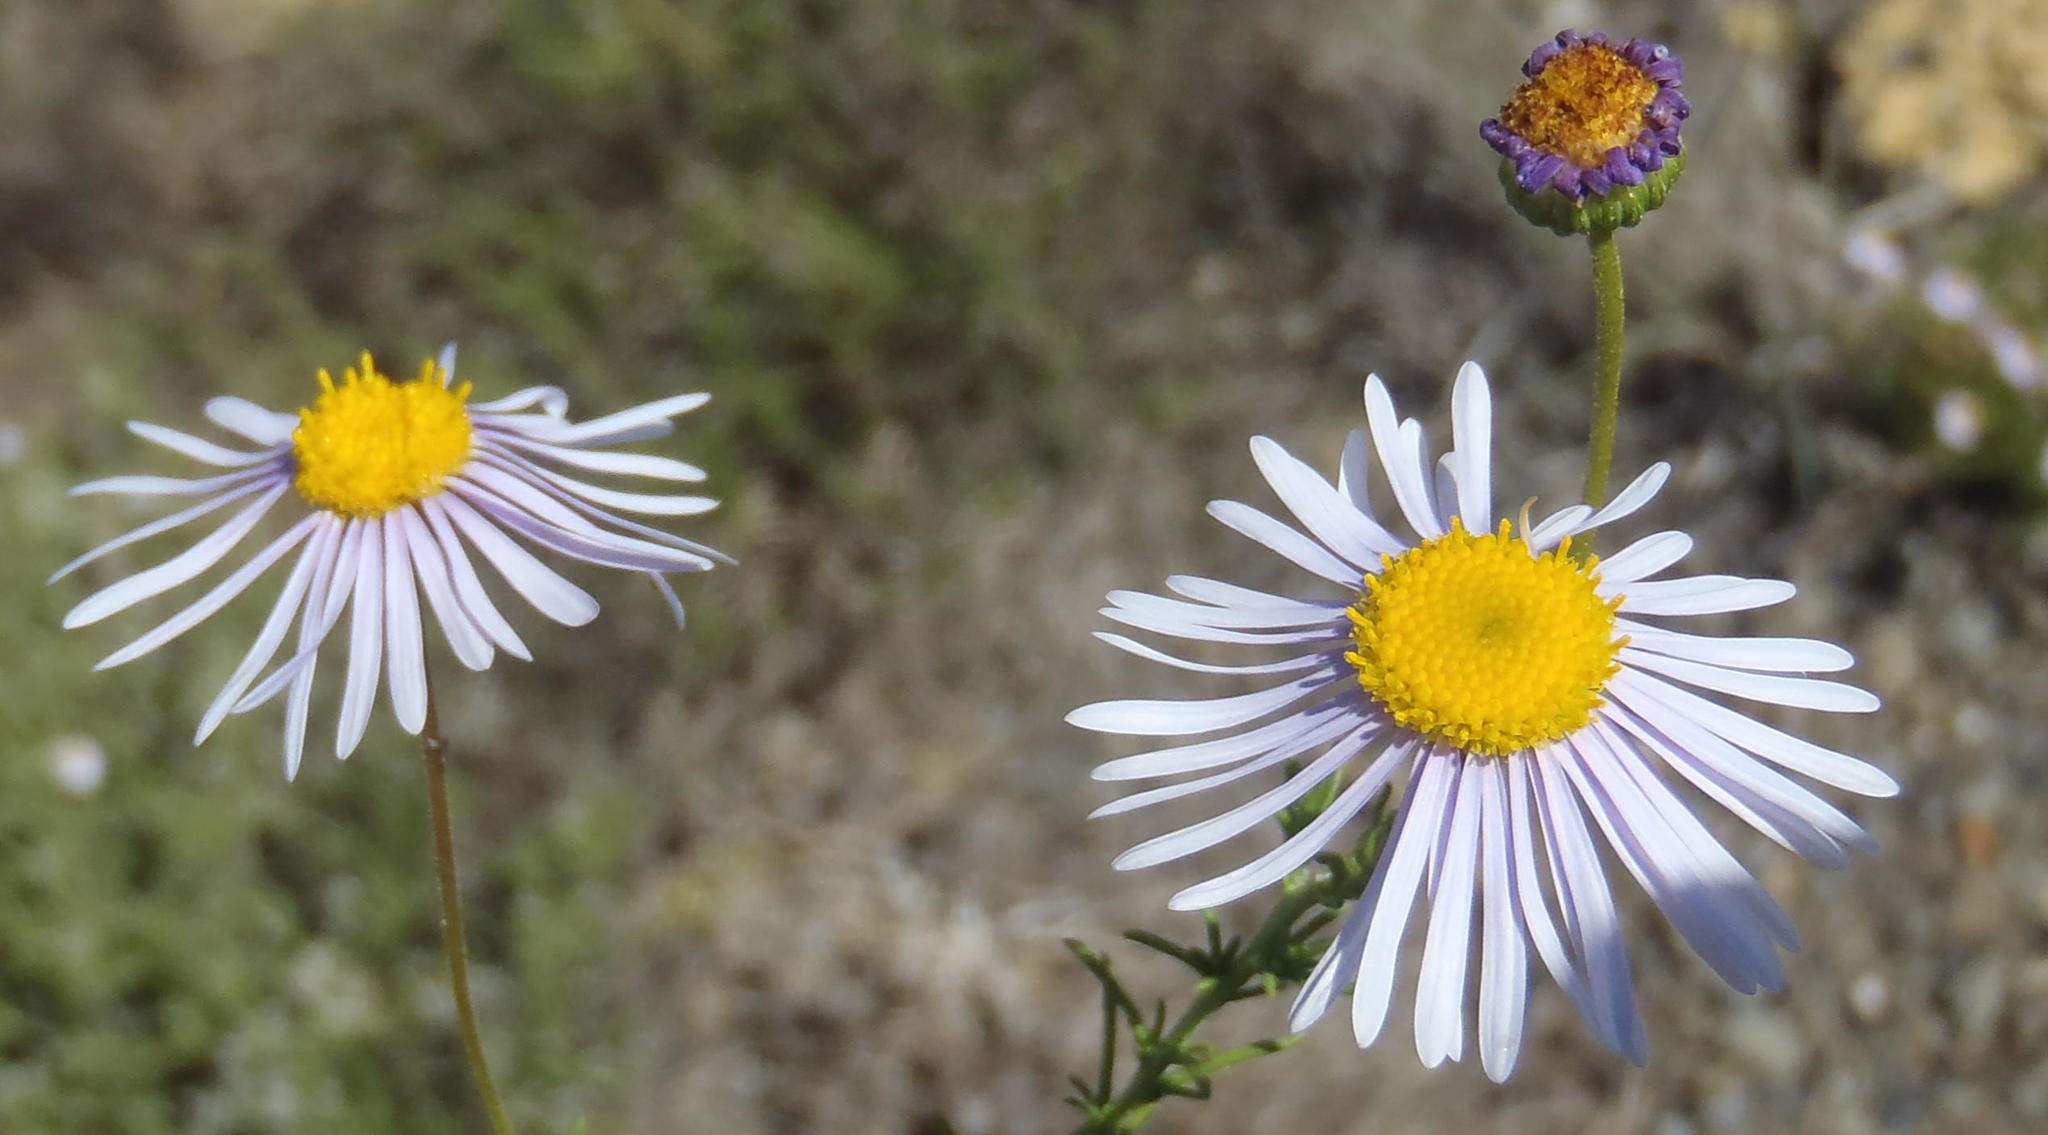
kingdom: Plantae
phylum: Tracheophyta
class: Magnoliopsida
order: Asterales
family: Asteraceae
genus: Felicia
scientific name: Felicia muricata
